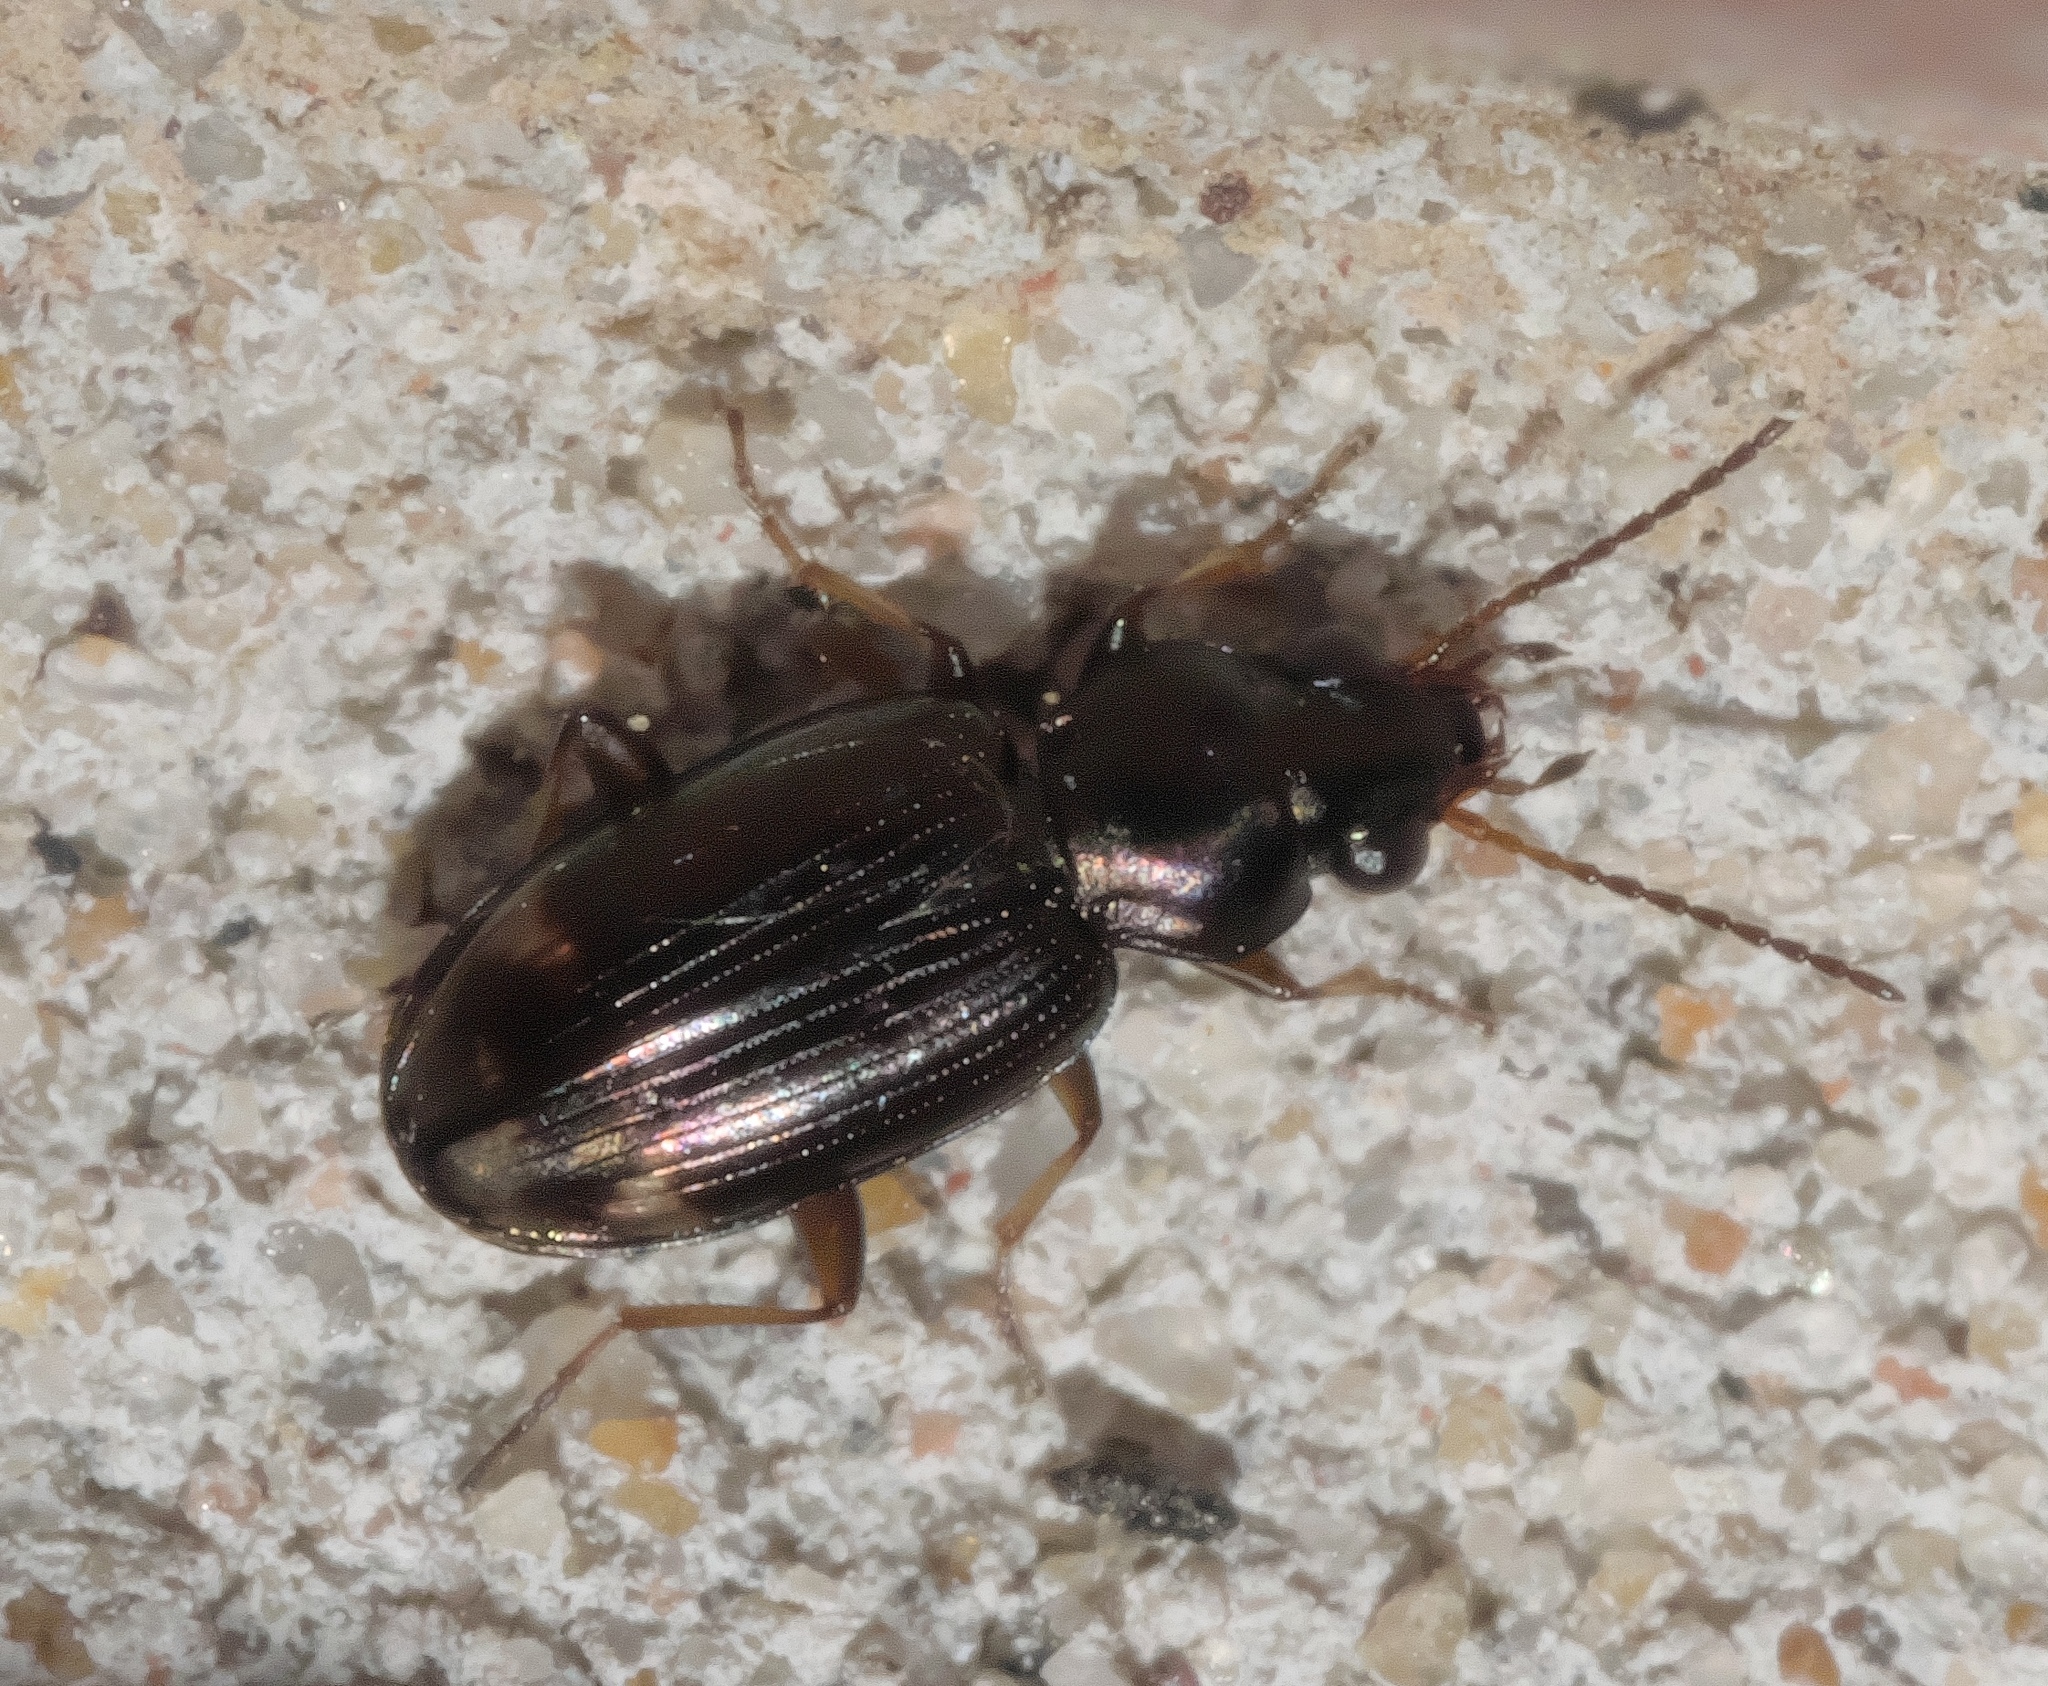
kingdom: Animalia
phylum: Arthropoda
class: Insecta
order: Coleoptera
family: Carabidae
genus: Bembidion
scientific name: Bembidion rapidum
